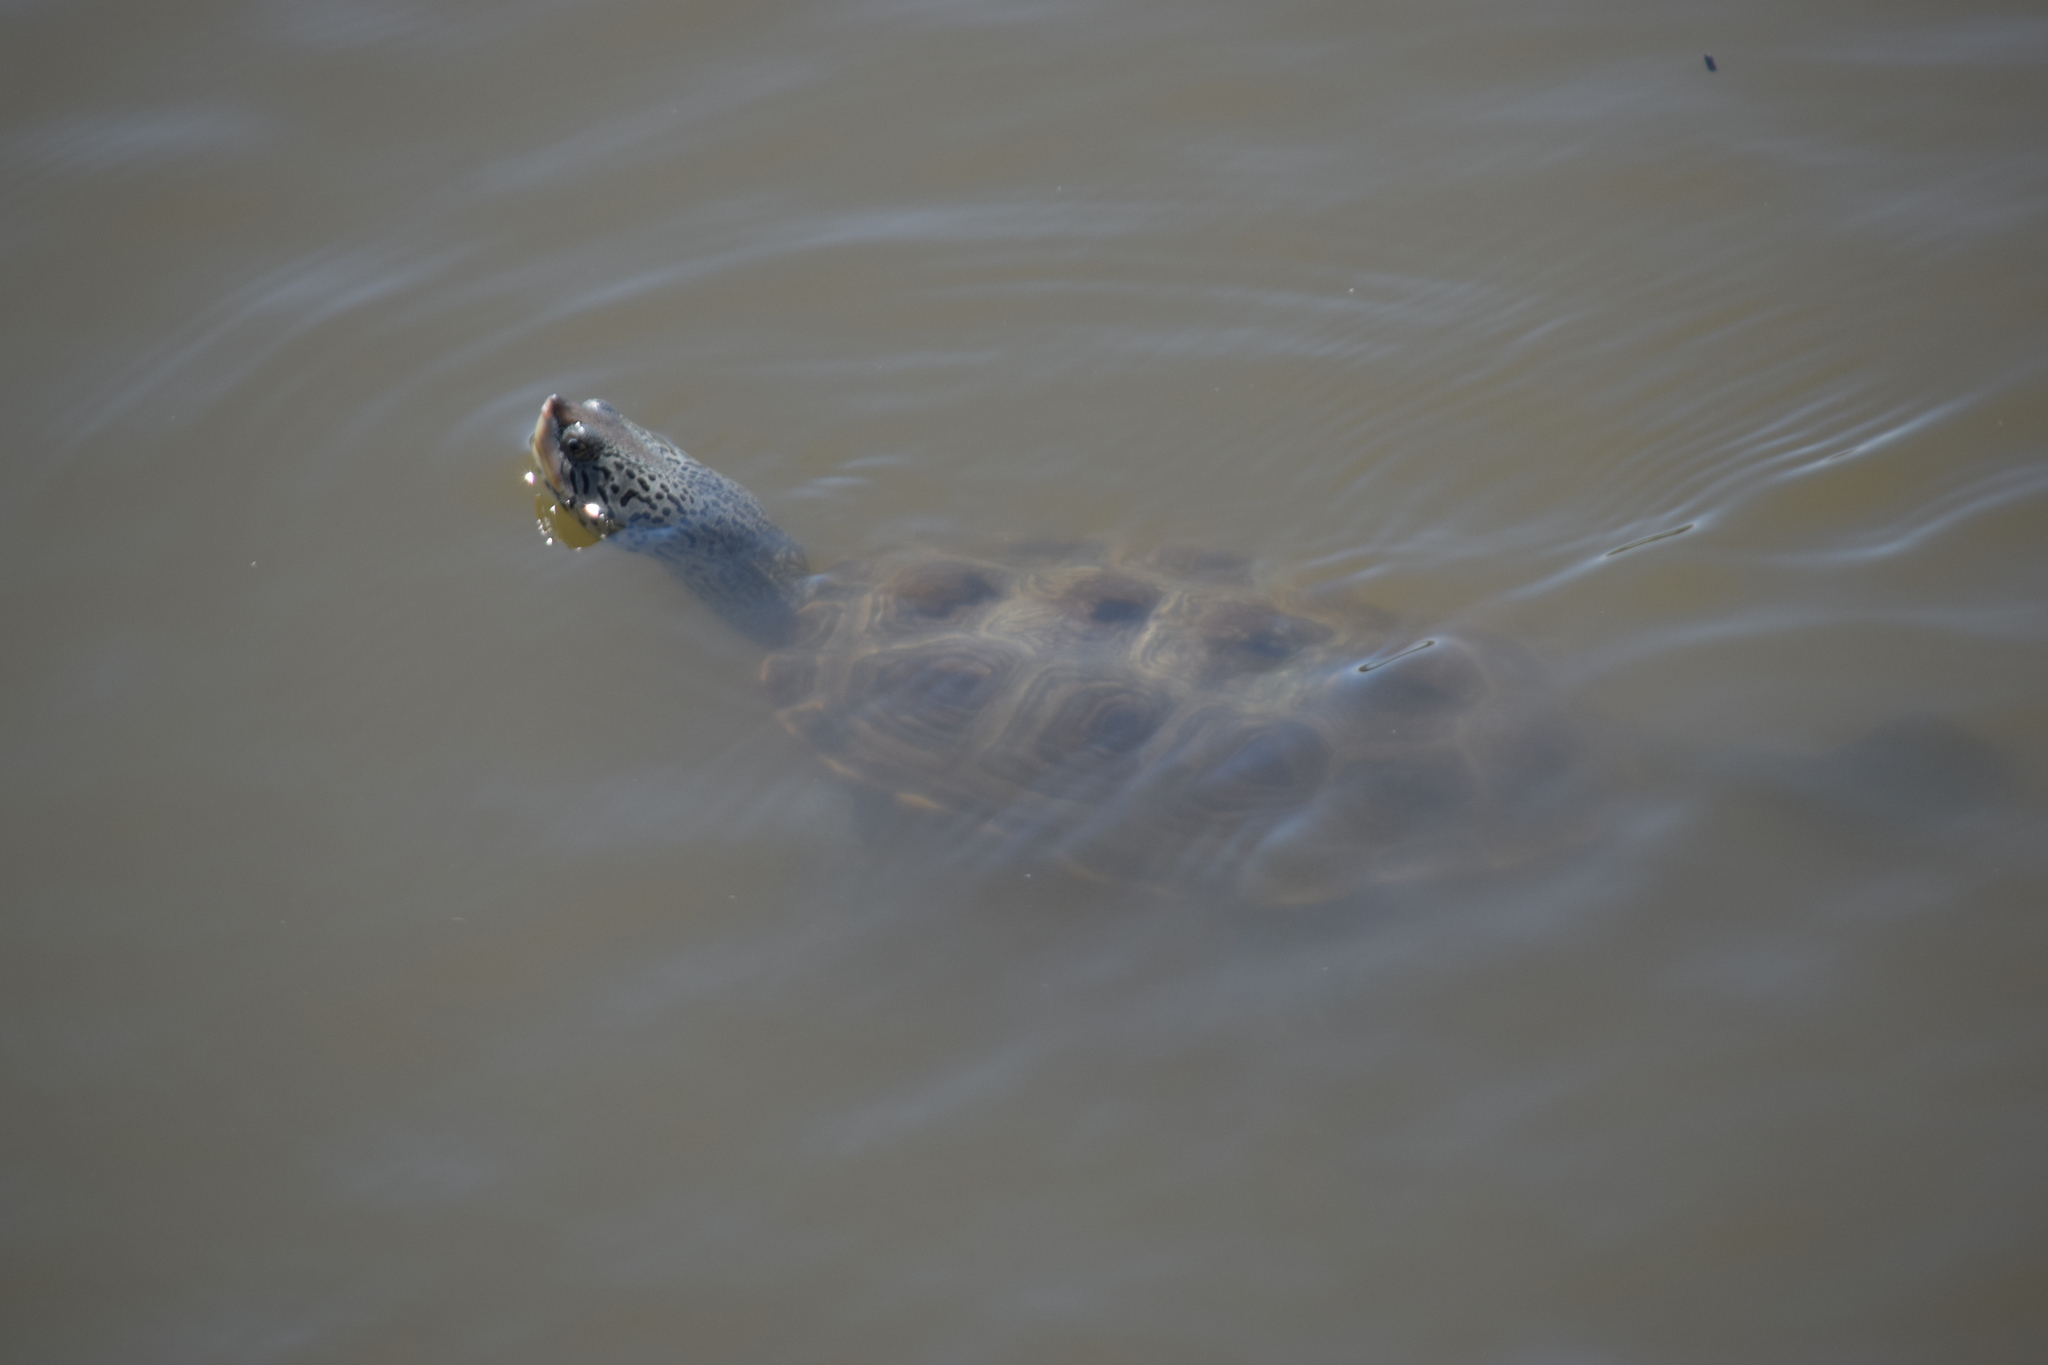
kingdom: Animalia
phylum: Chordata
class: Testudines
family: Emydidae
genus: Malaclemys
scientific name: Malaclemys terrapin
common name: Diamondback terrapin
